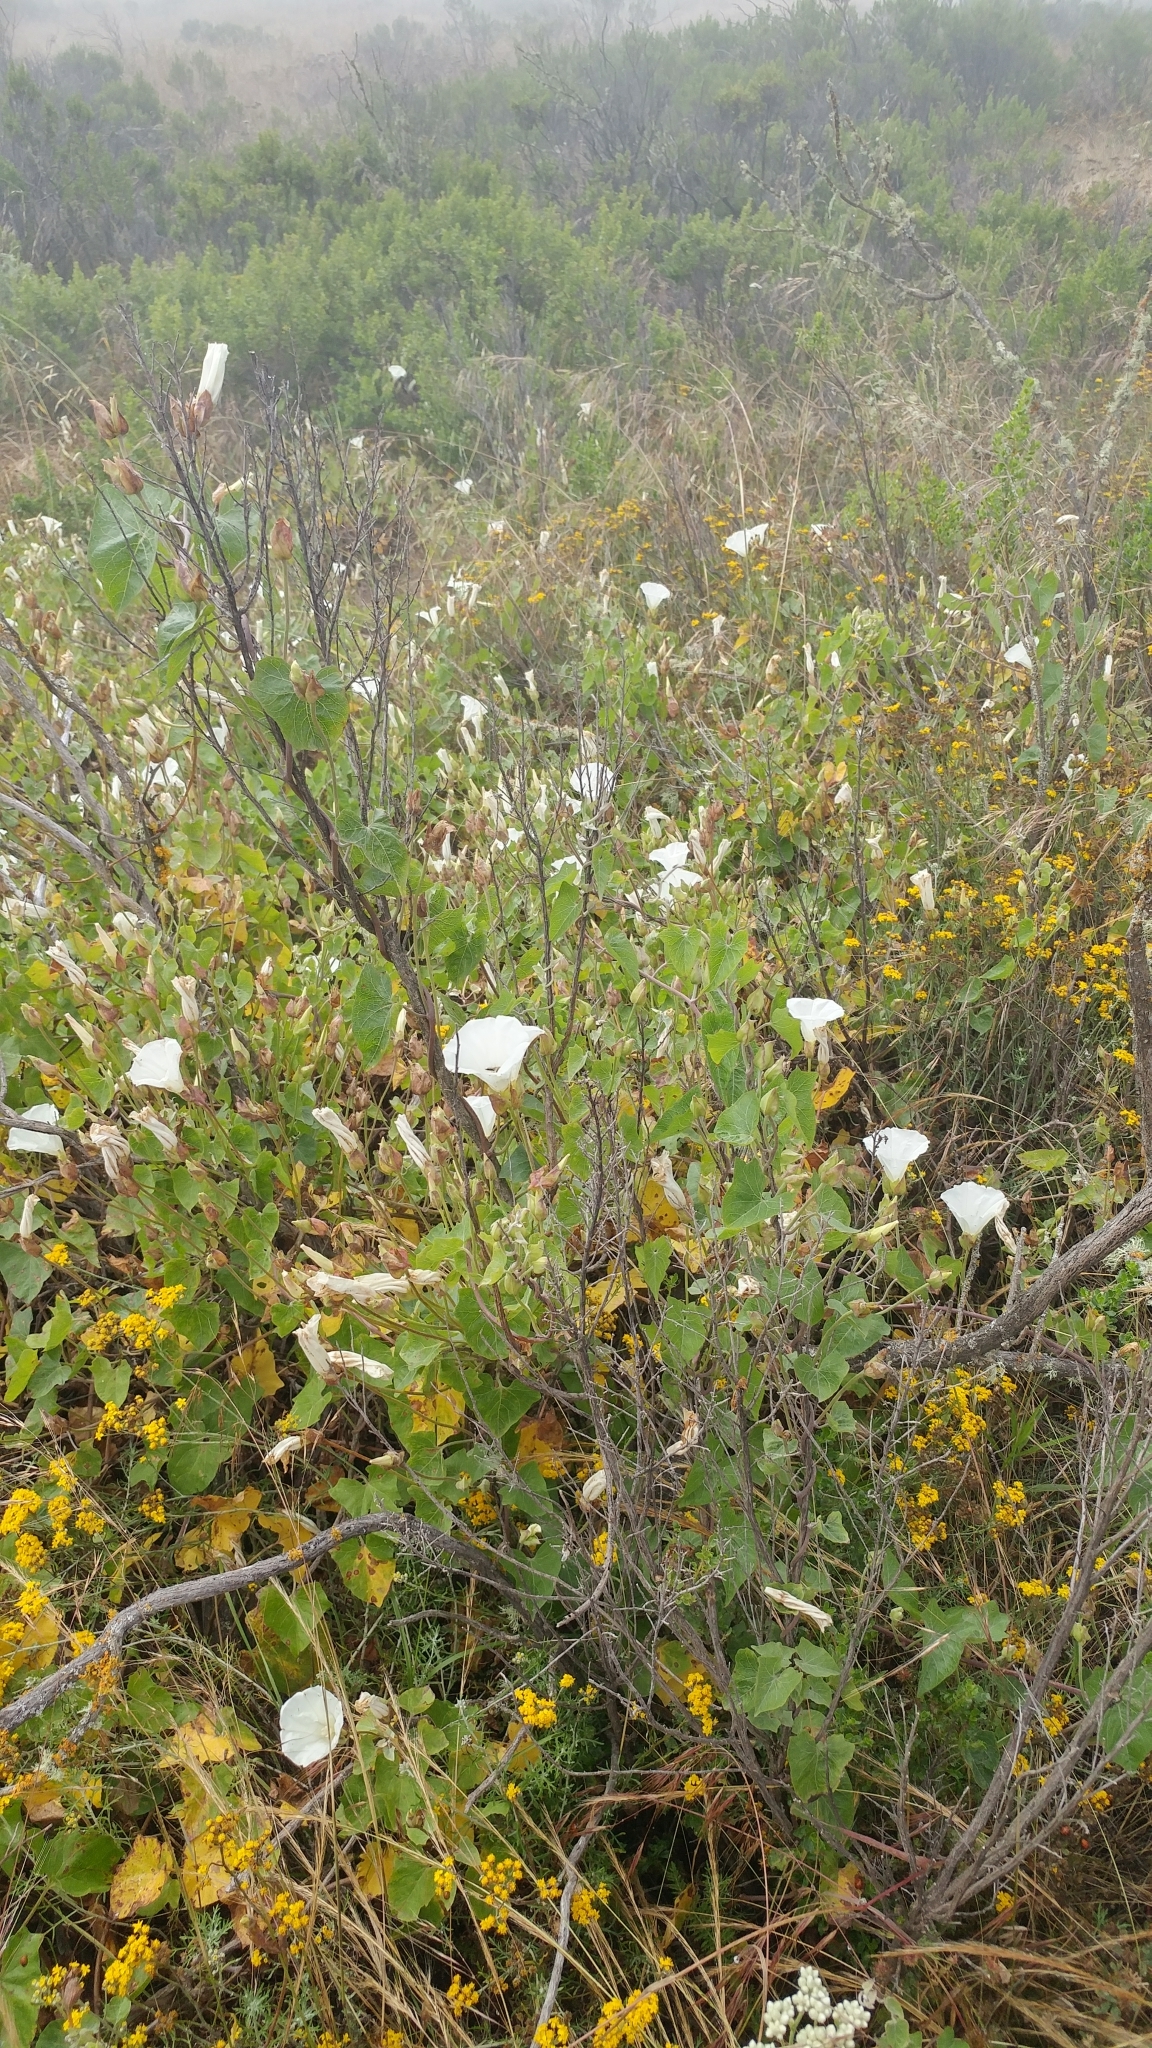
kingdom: Plantae
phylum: Tracheophyta
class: Magnoliopsida
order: Solanales
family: Convolvulaceae
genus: Calystegia
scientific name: Calystegia macrostegia
